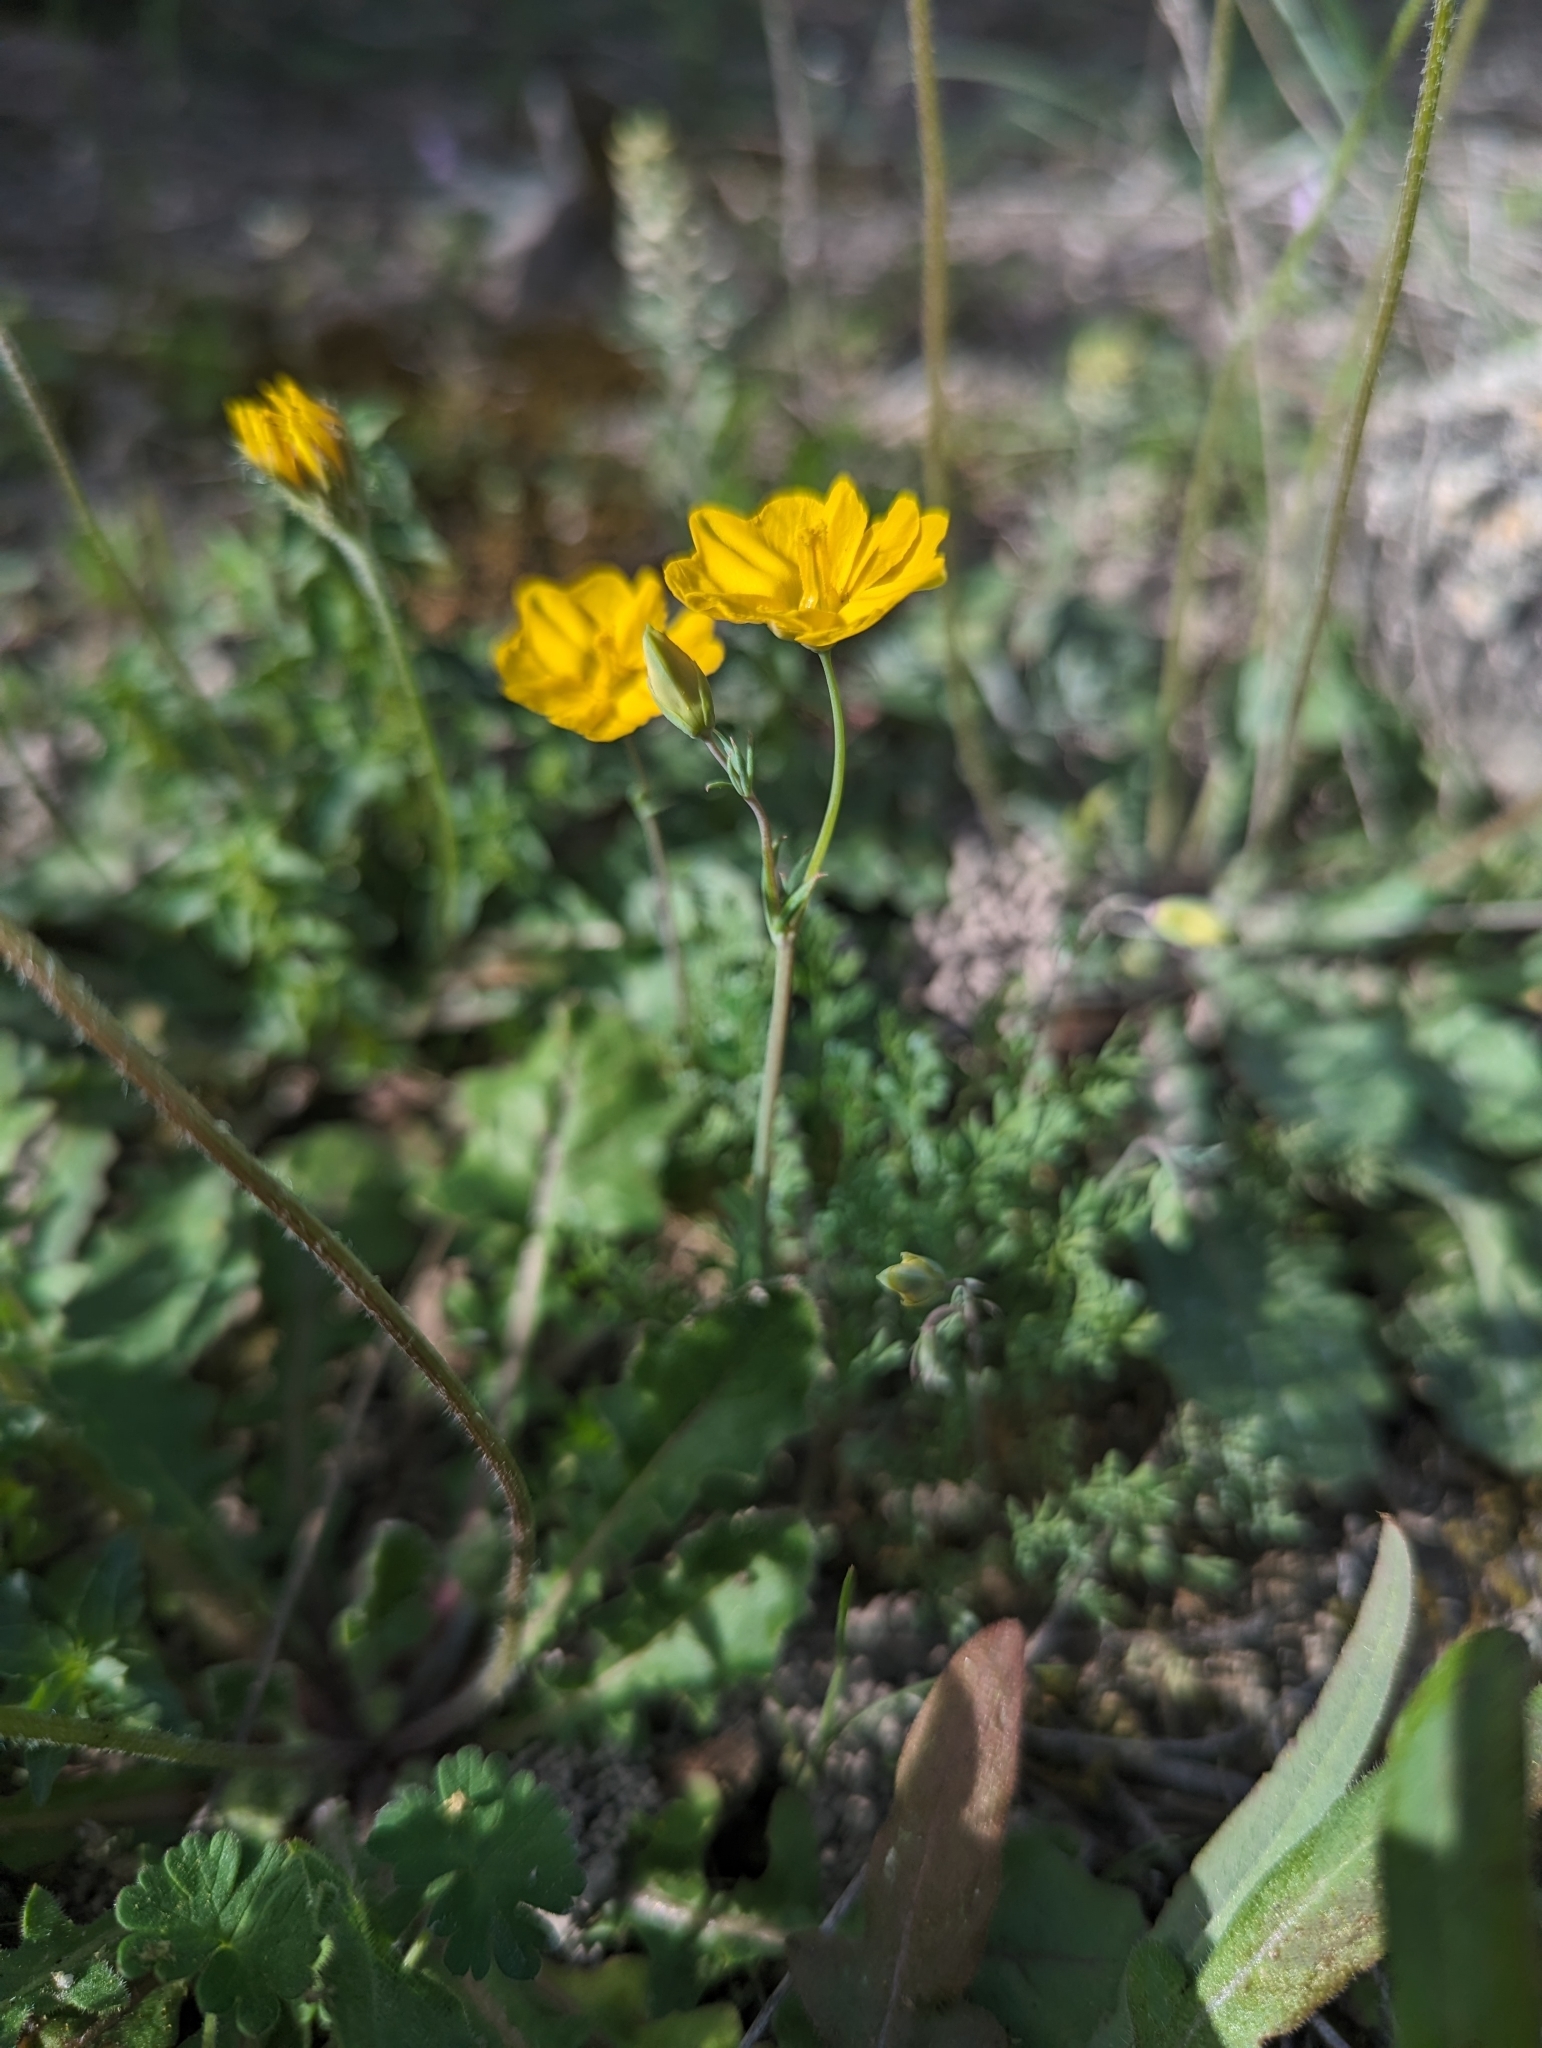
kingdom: Plantae
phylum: Tracheophyta
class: Magnoliopsida
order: Ranunculales
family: Papaveraceae
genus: Hypecoum
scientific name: Hypecoum imberbe
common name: Sicklefruit hypecoum
